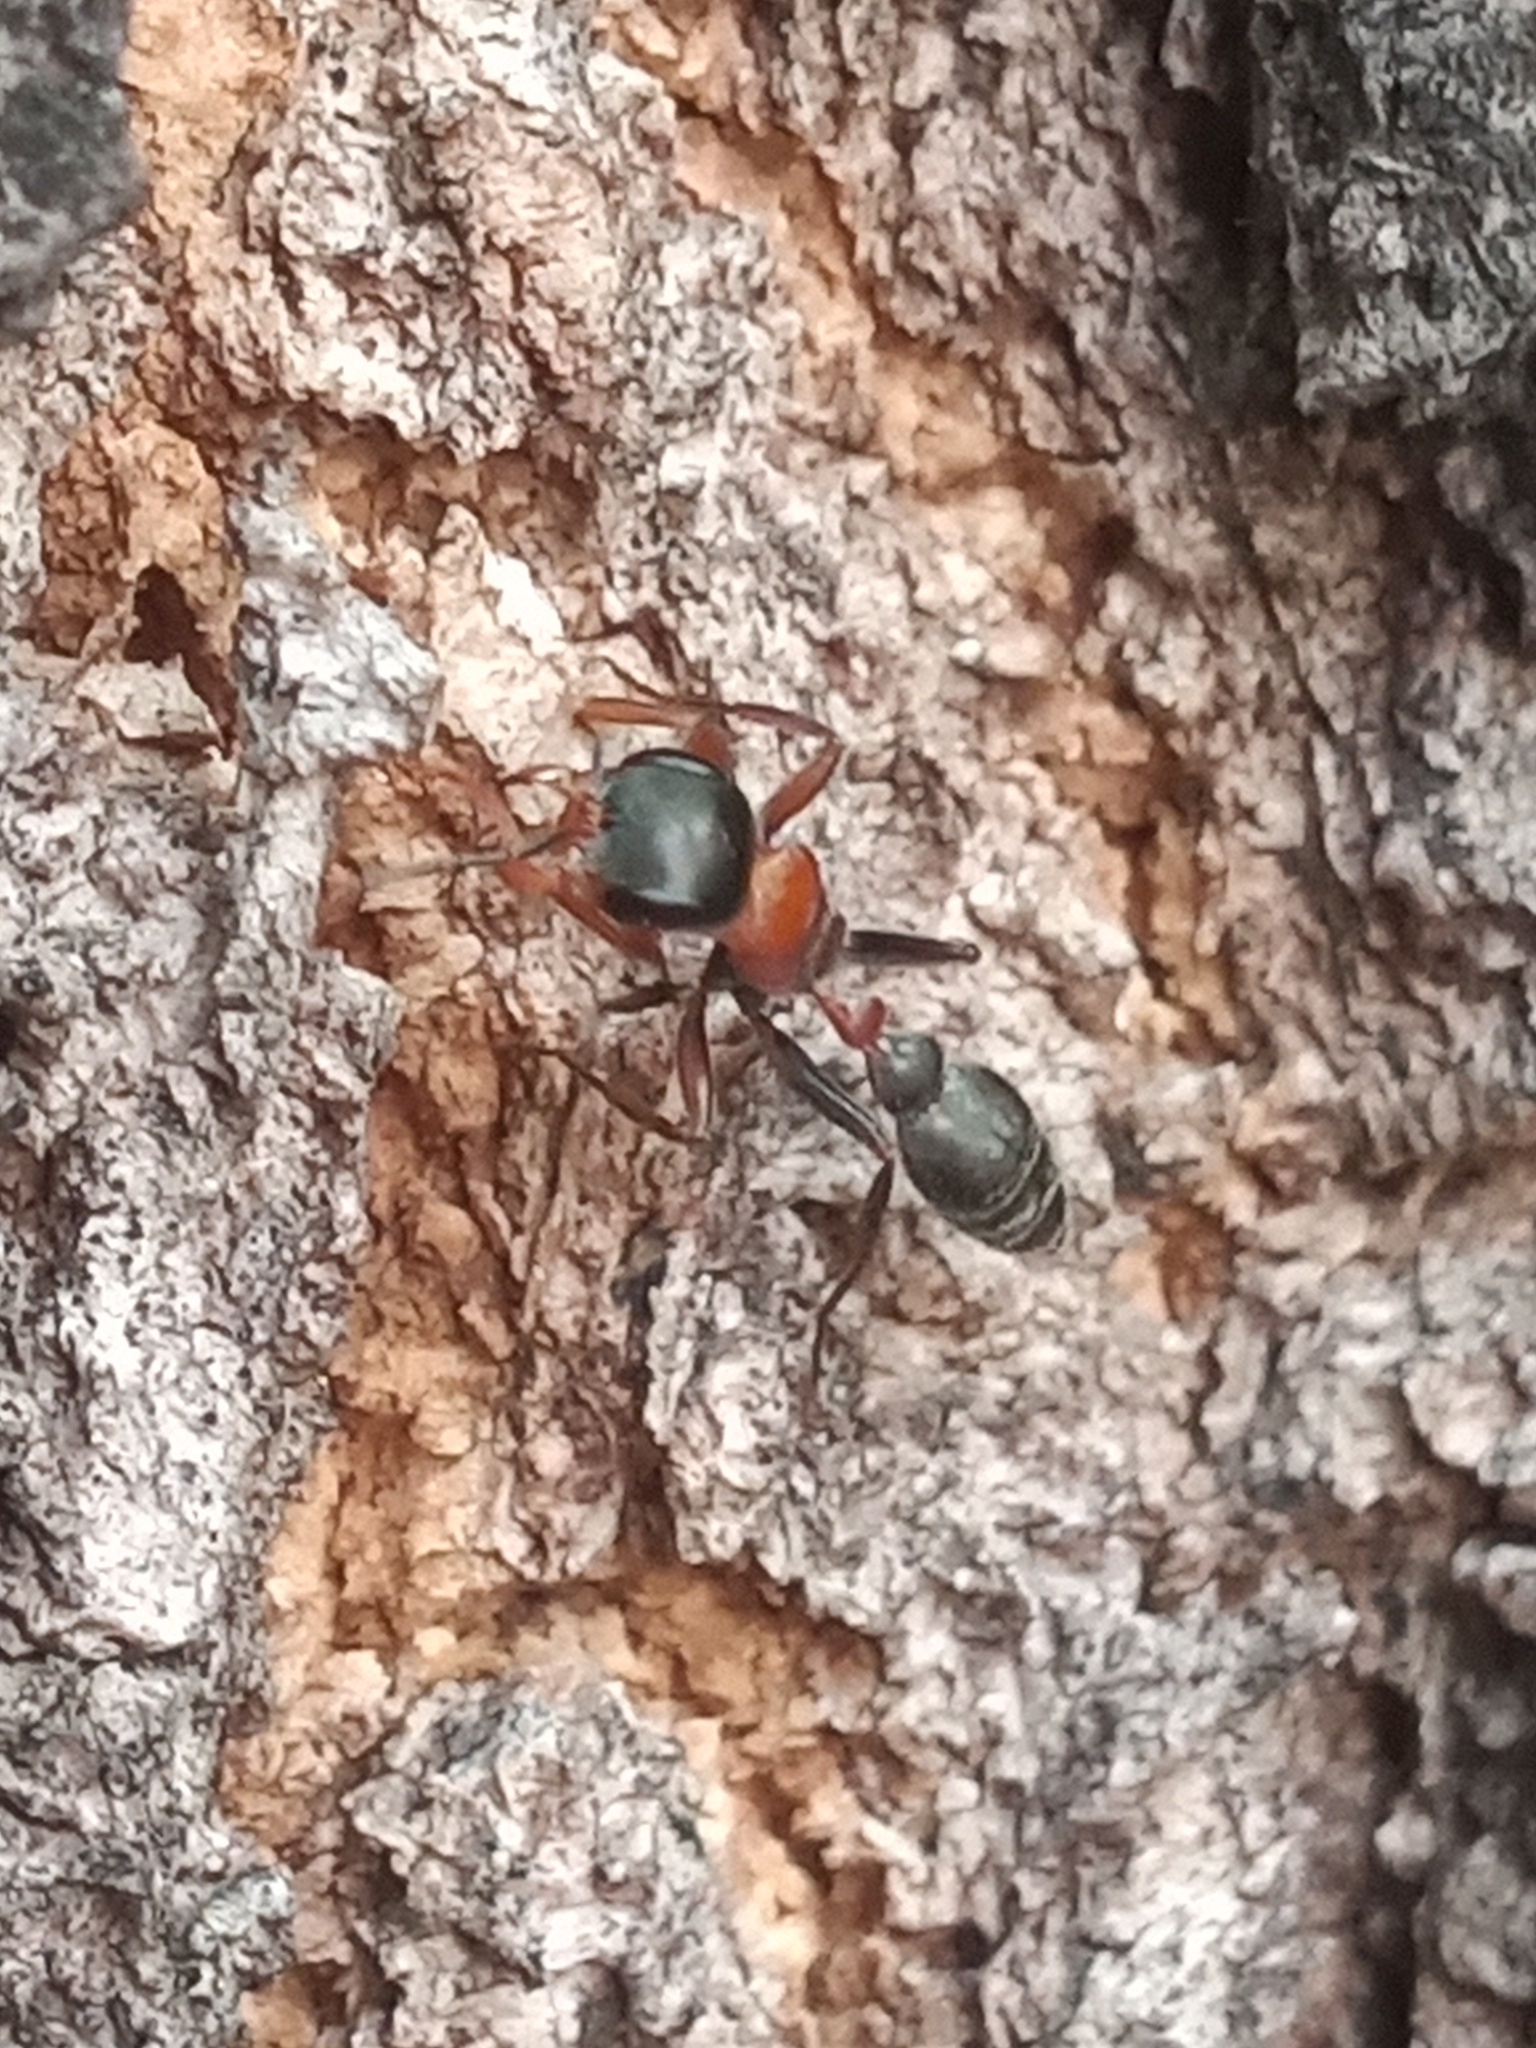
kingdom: Animalia
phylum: Arthropoda
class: Insecta
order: Hymenoptera
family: Formicidae
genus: Pseudomyrmex
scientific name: Pseudomyrmex gracilis
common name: Graceful twig ant
